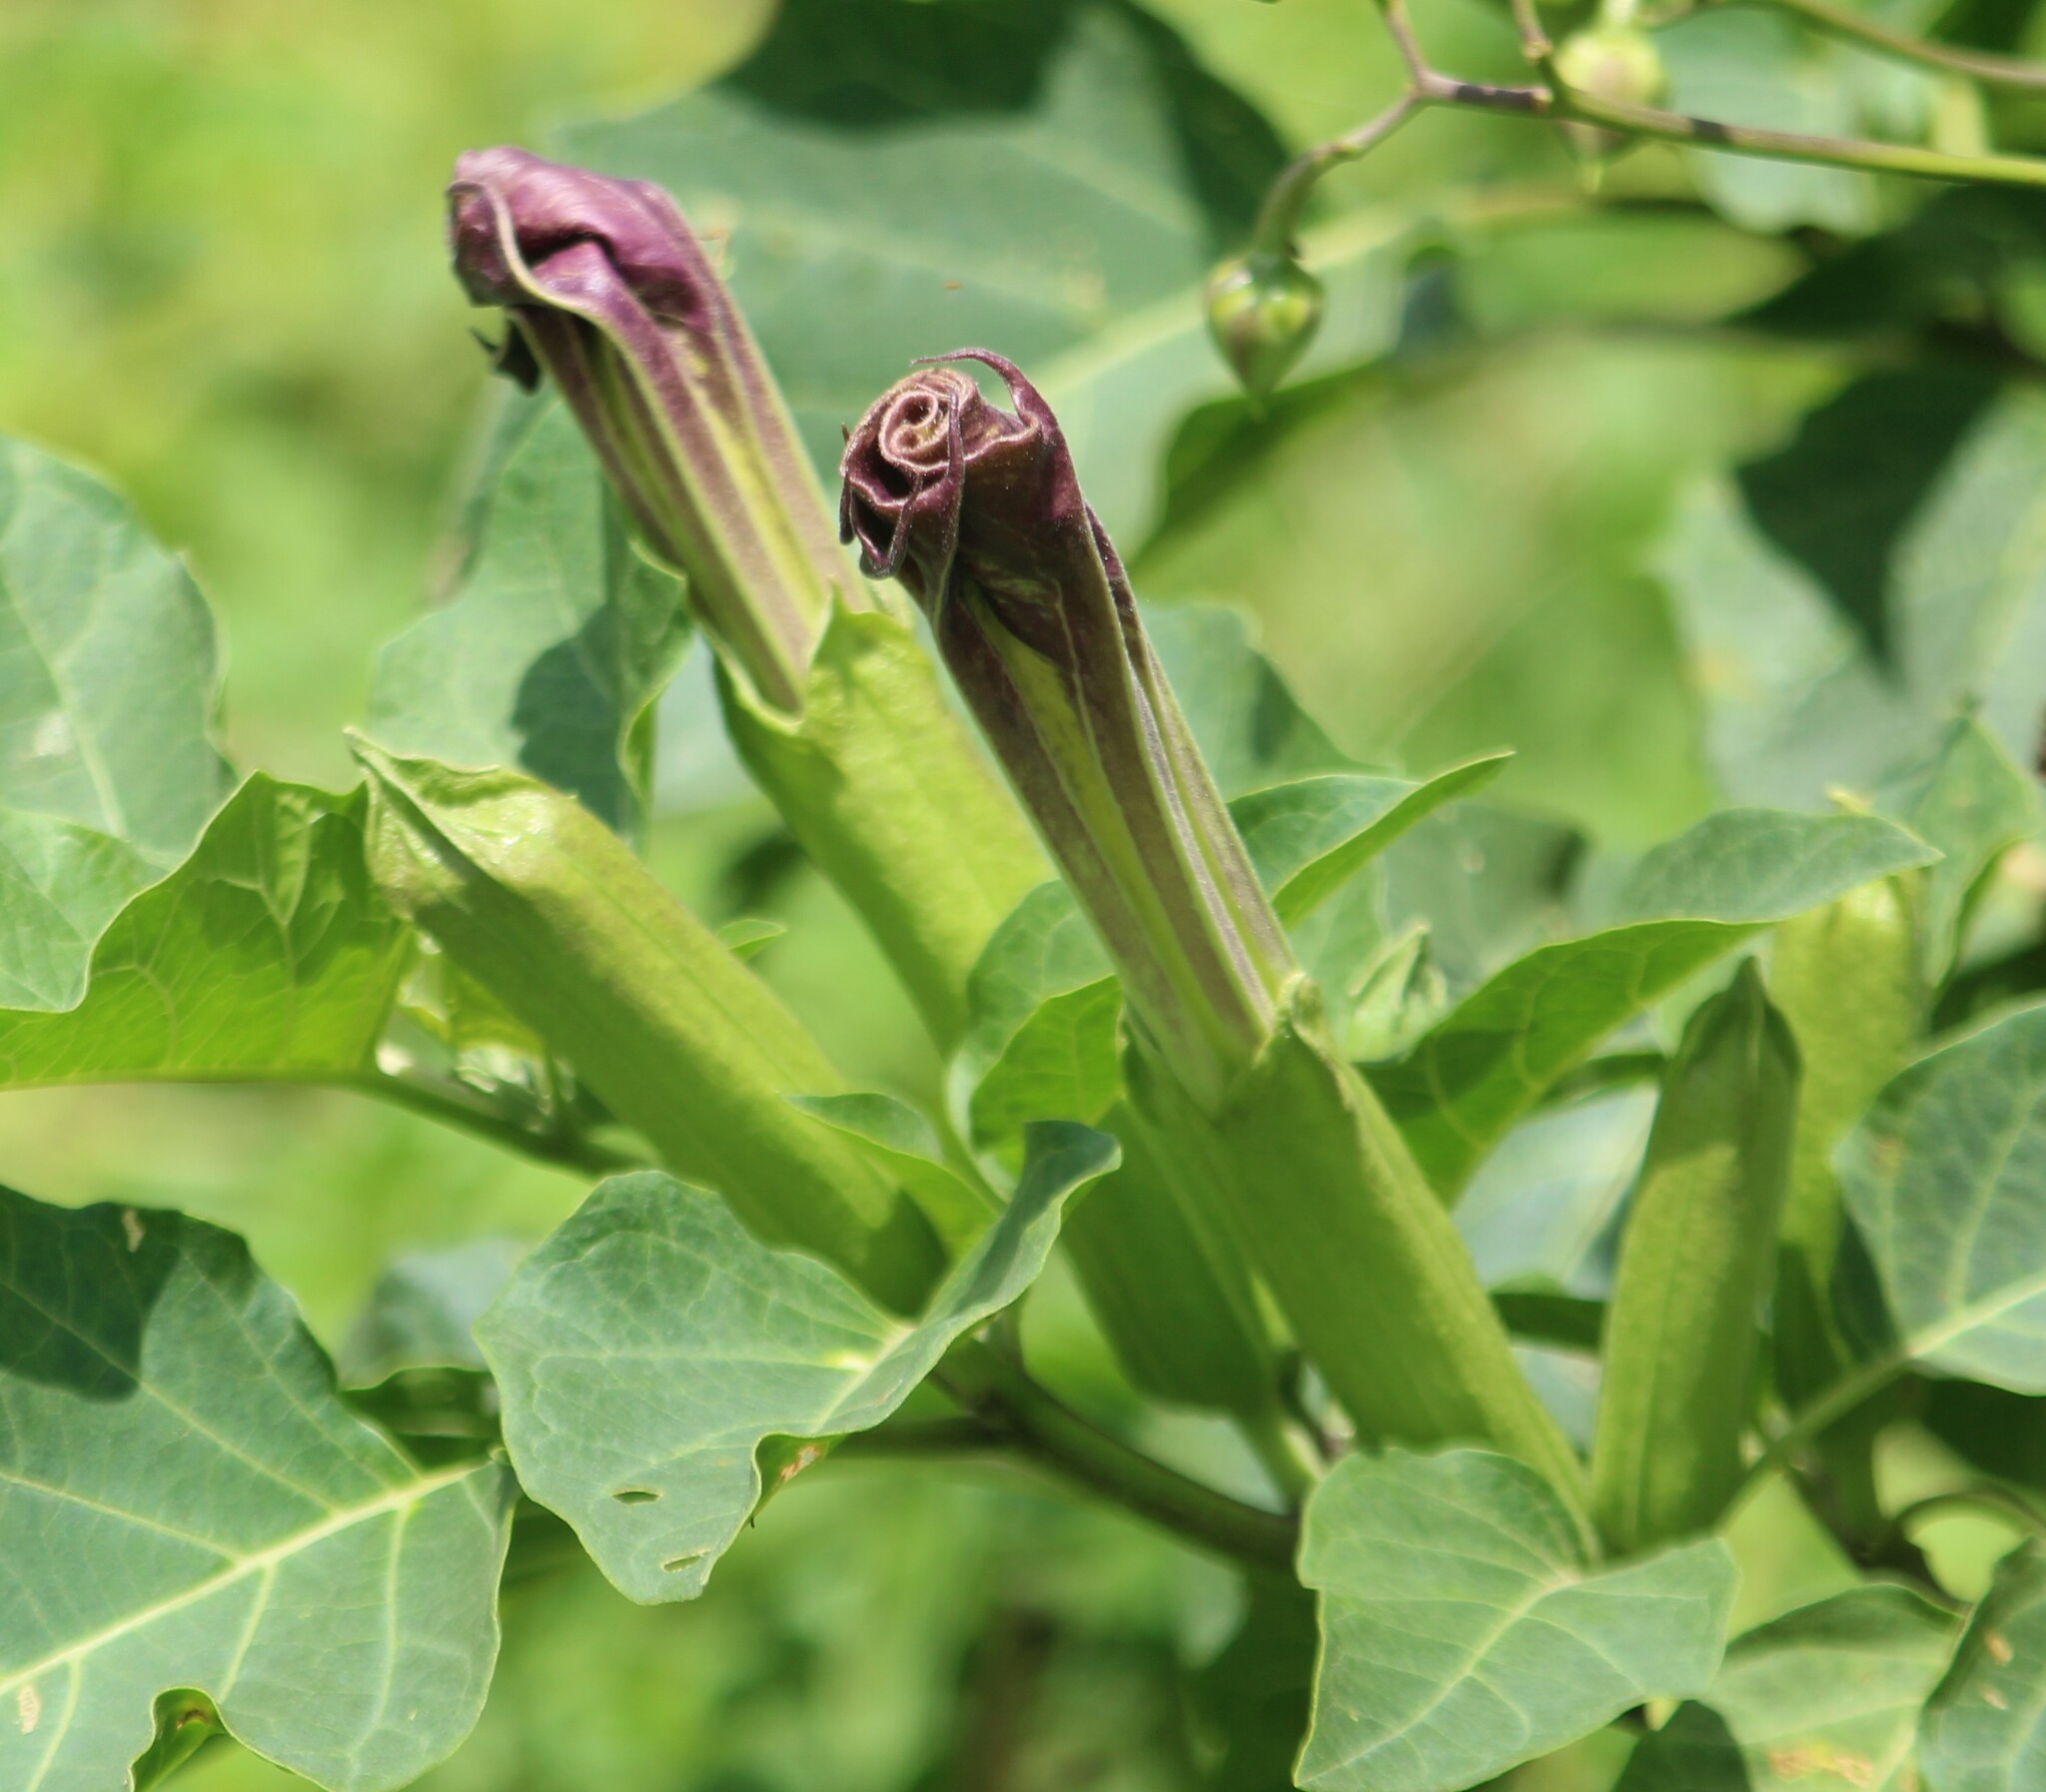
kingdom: Plantae
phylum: Tracheophyta
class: Magnoliopsida
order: Solanales
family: Solanaceae
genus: Datura
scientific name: Datura metel
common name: Jimsonweed
